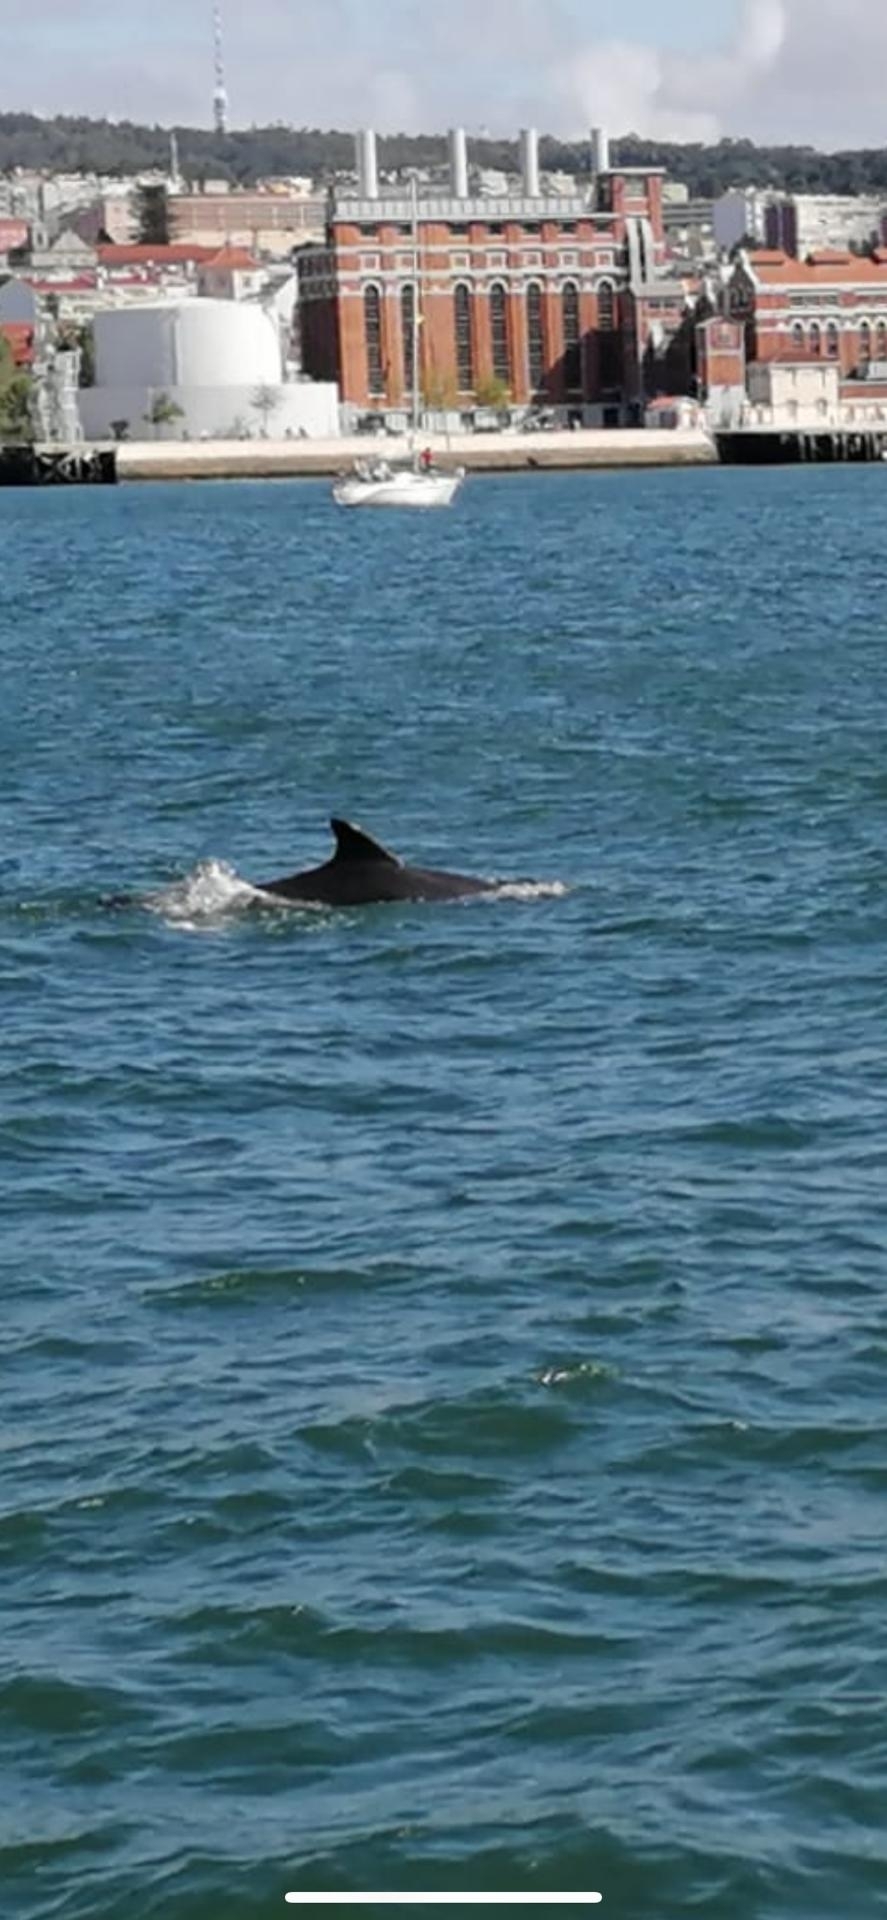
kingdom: Animalia
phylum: Chordata
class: Mammalia
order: Cetacea
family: Delphinidae
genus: Tursiops
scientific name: Tursiops truncatus
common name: Bottlenose dolphin
